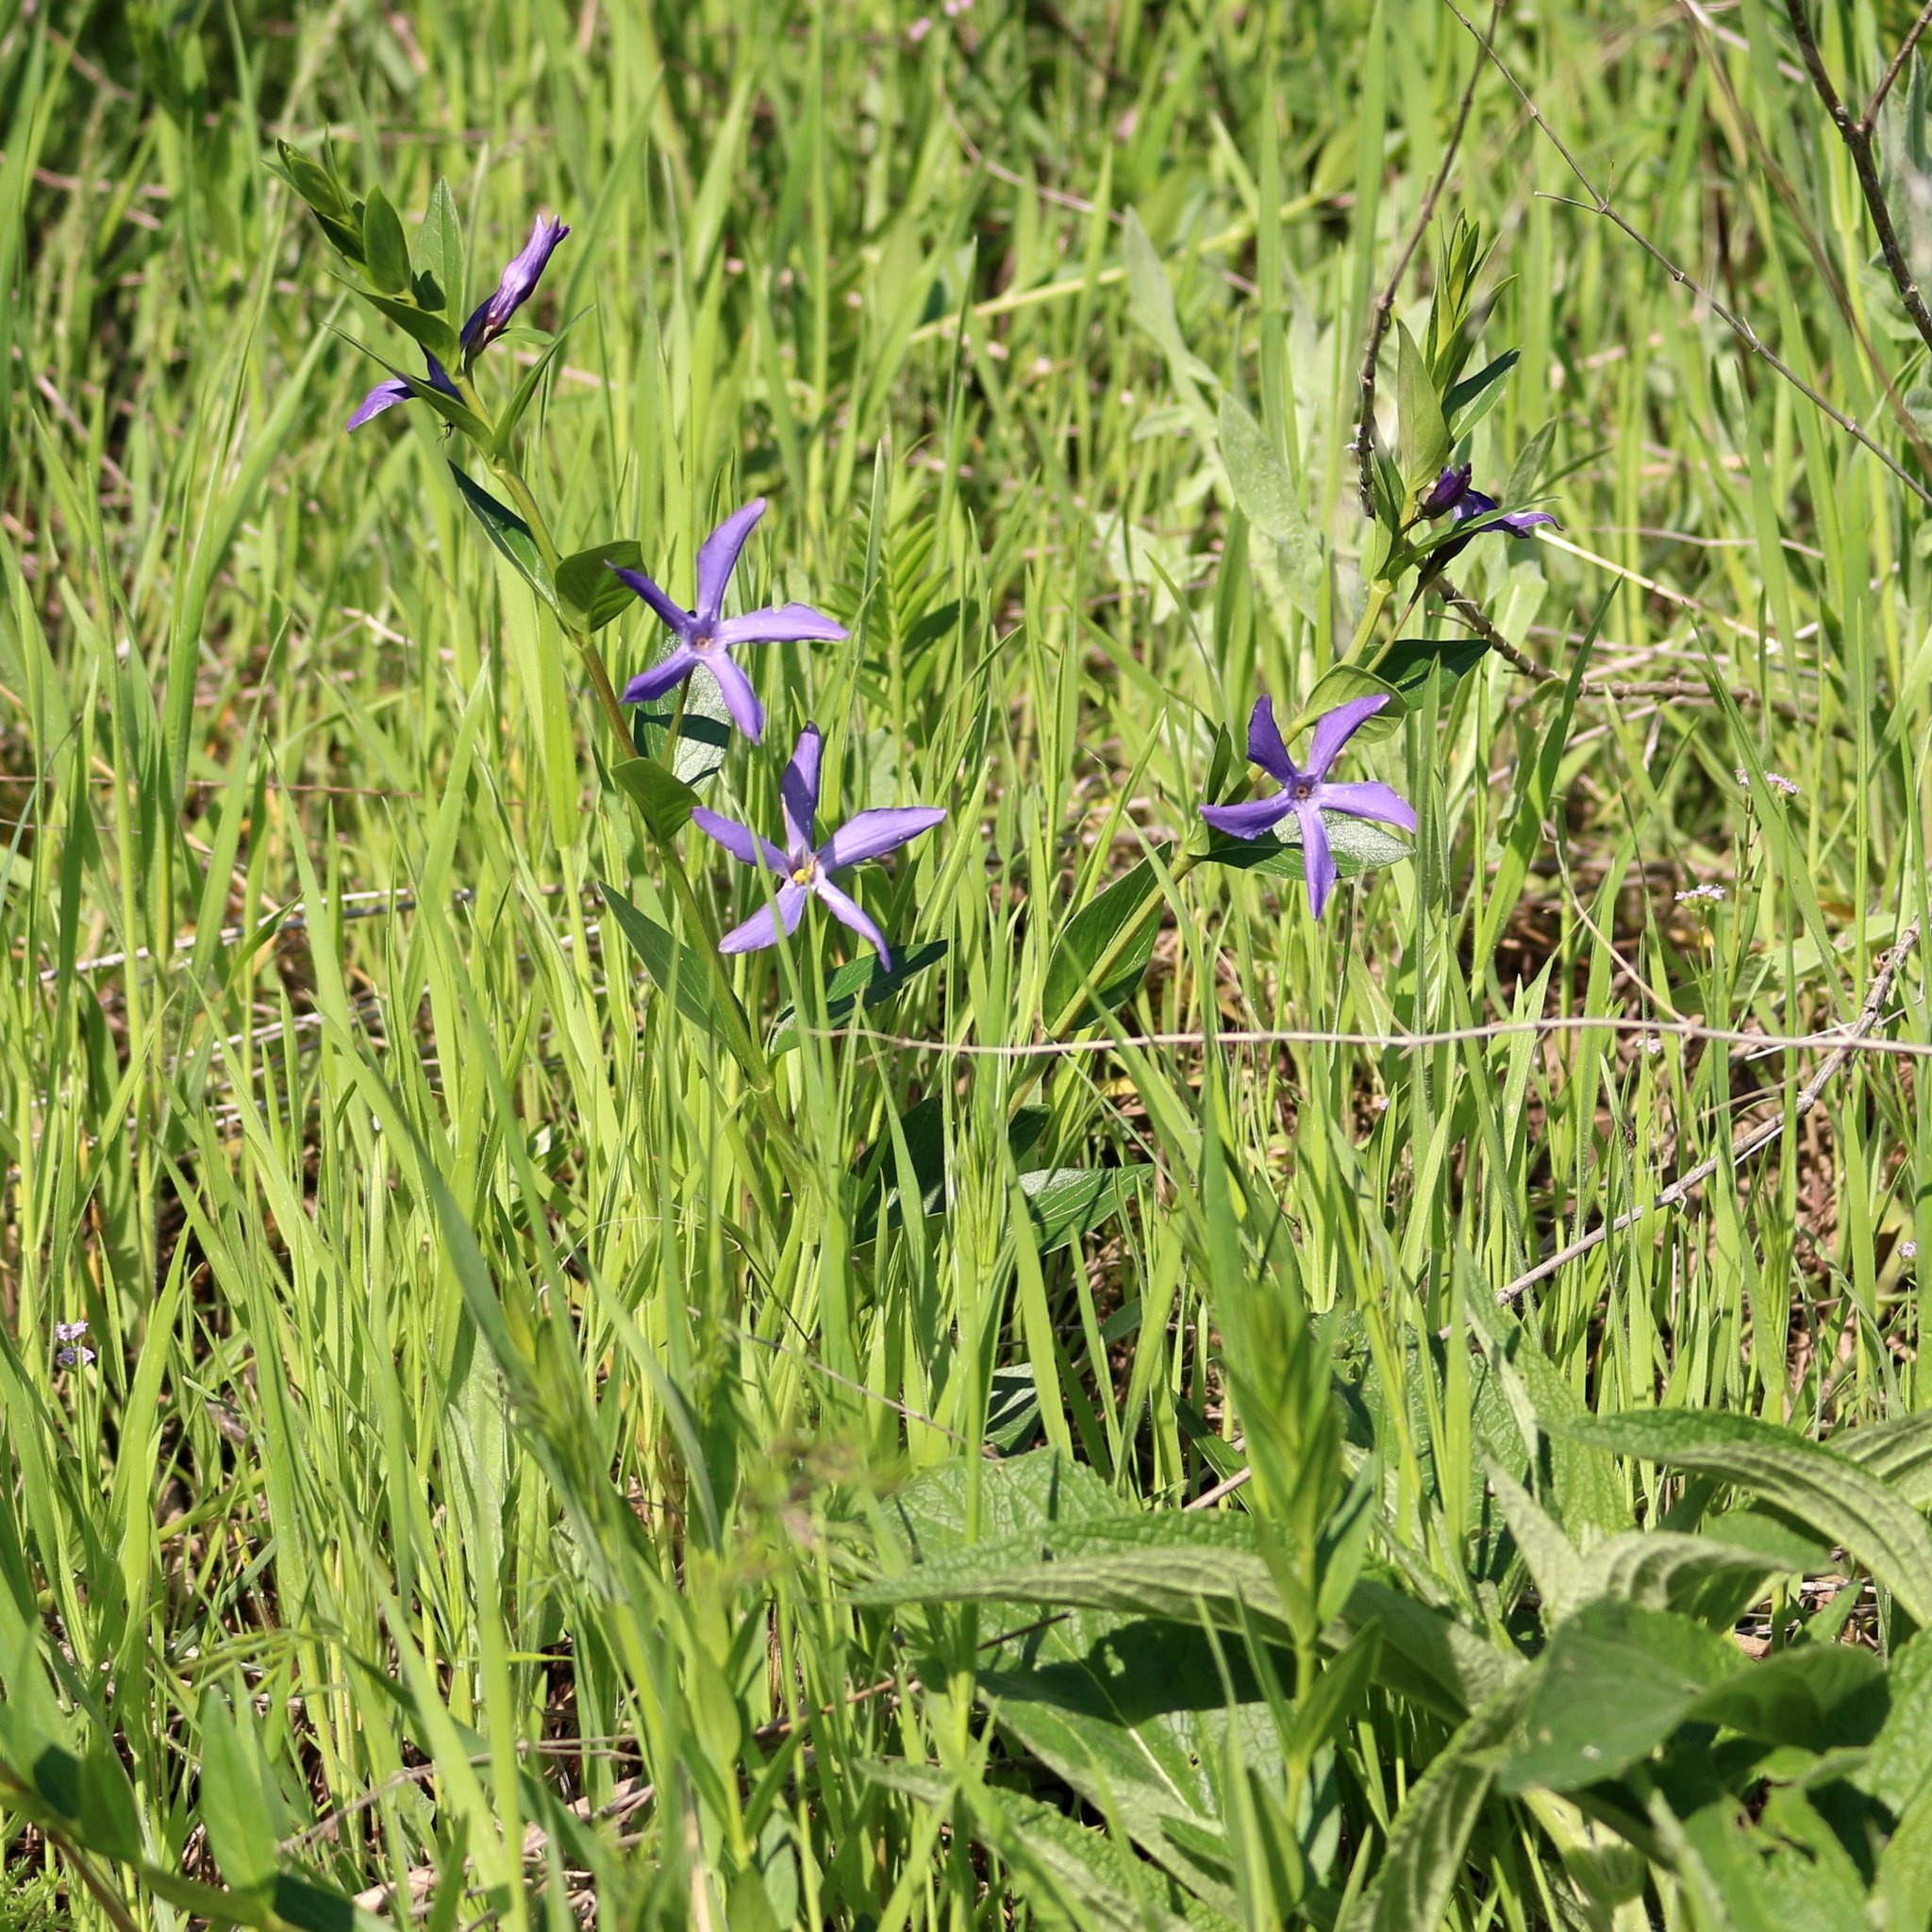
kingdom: Plantae
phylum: Tracheophyta
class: Magnoliopsida
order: Gentianales
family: Apocynaceae
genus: Vinca
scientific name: Vinca herbacea
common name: Herbaceous periwinkle
